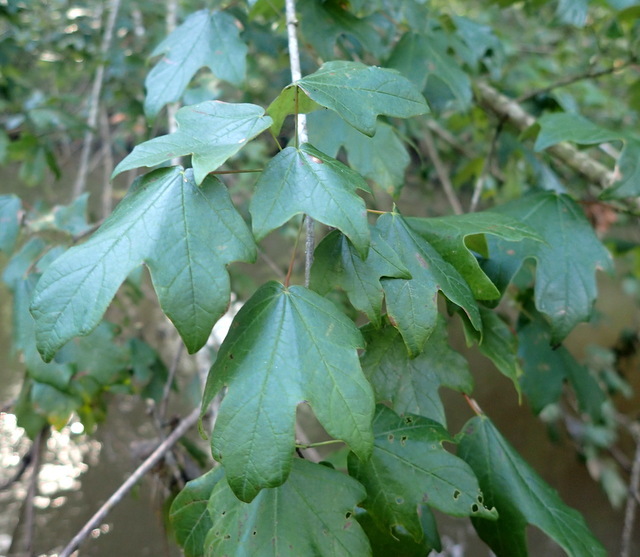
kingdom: Plantae
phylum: Tracheophyta
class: Magnoliopsida
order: Sapindales
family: Sapindaceae
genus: Acer
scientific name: Acer floridanum
